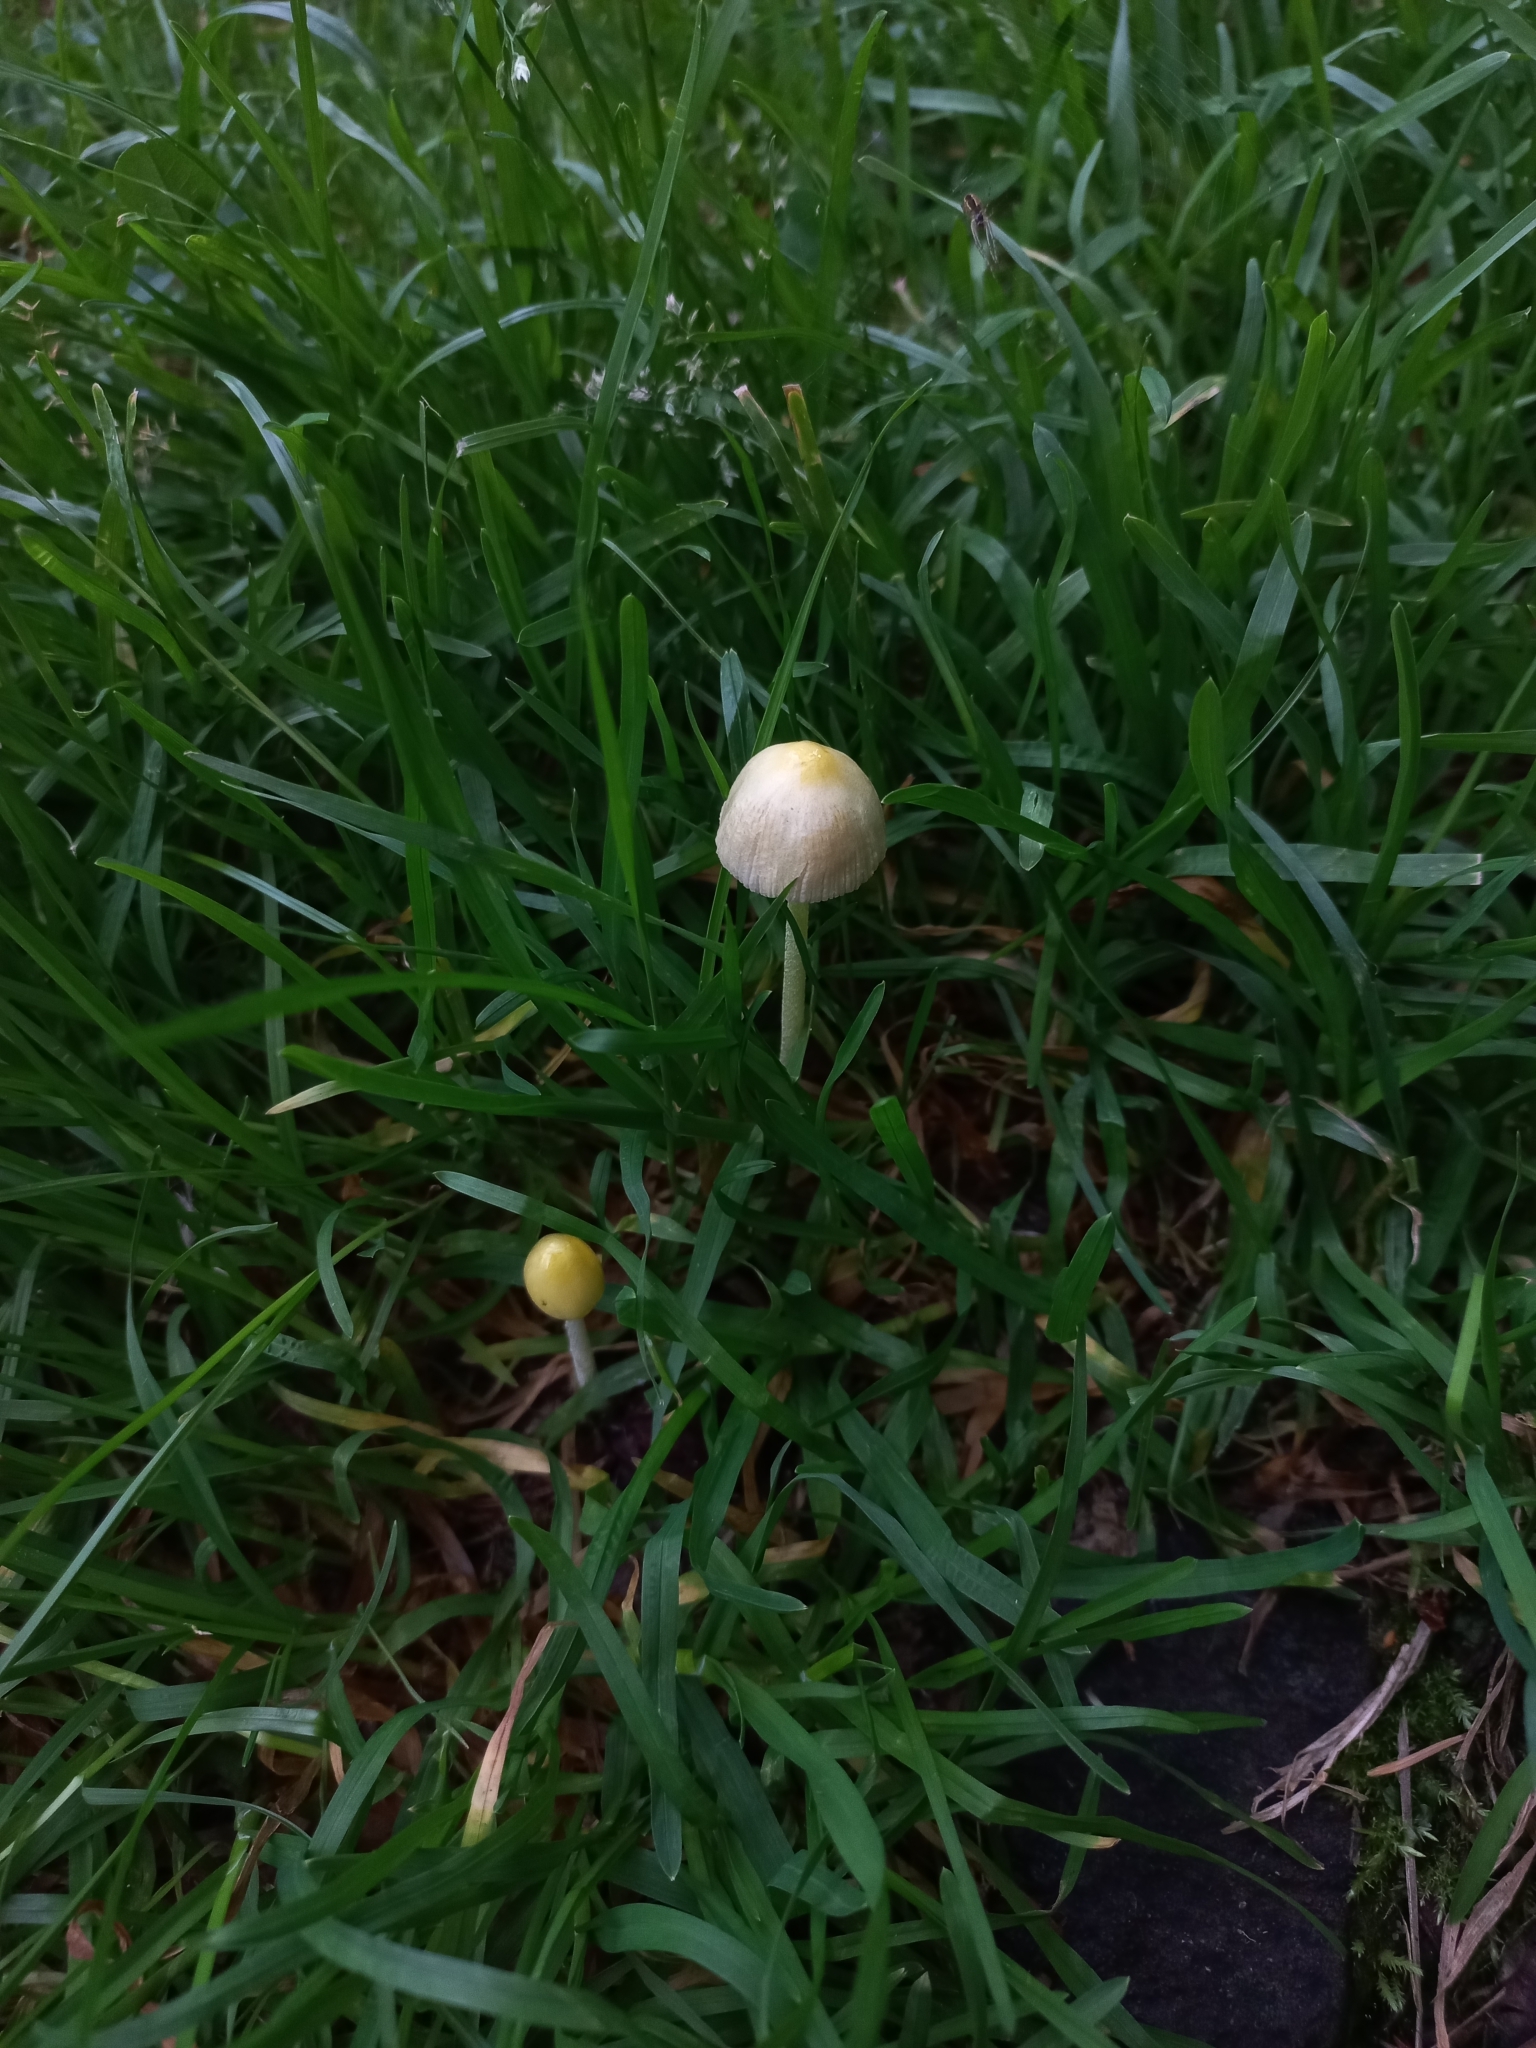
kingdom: Fungi
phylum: Basidiomycota
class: Agaricomycetes
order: Agaricales
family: Bolbitiaceae
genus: Bolbitius
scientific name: Bolbitius titubans
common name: Yellow fieldcap
